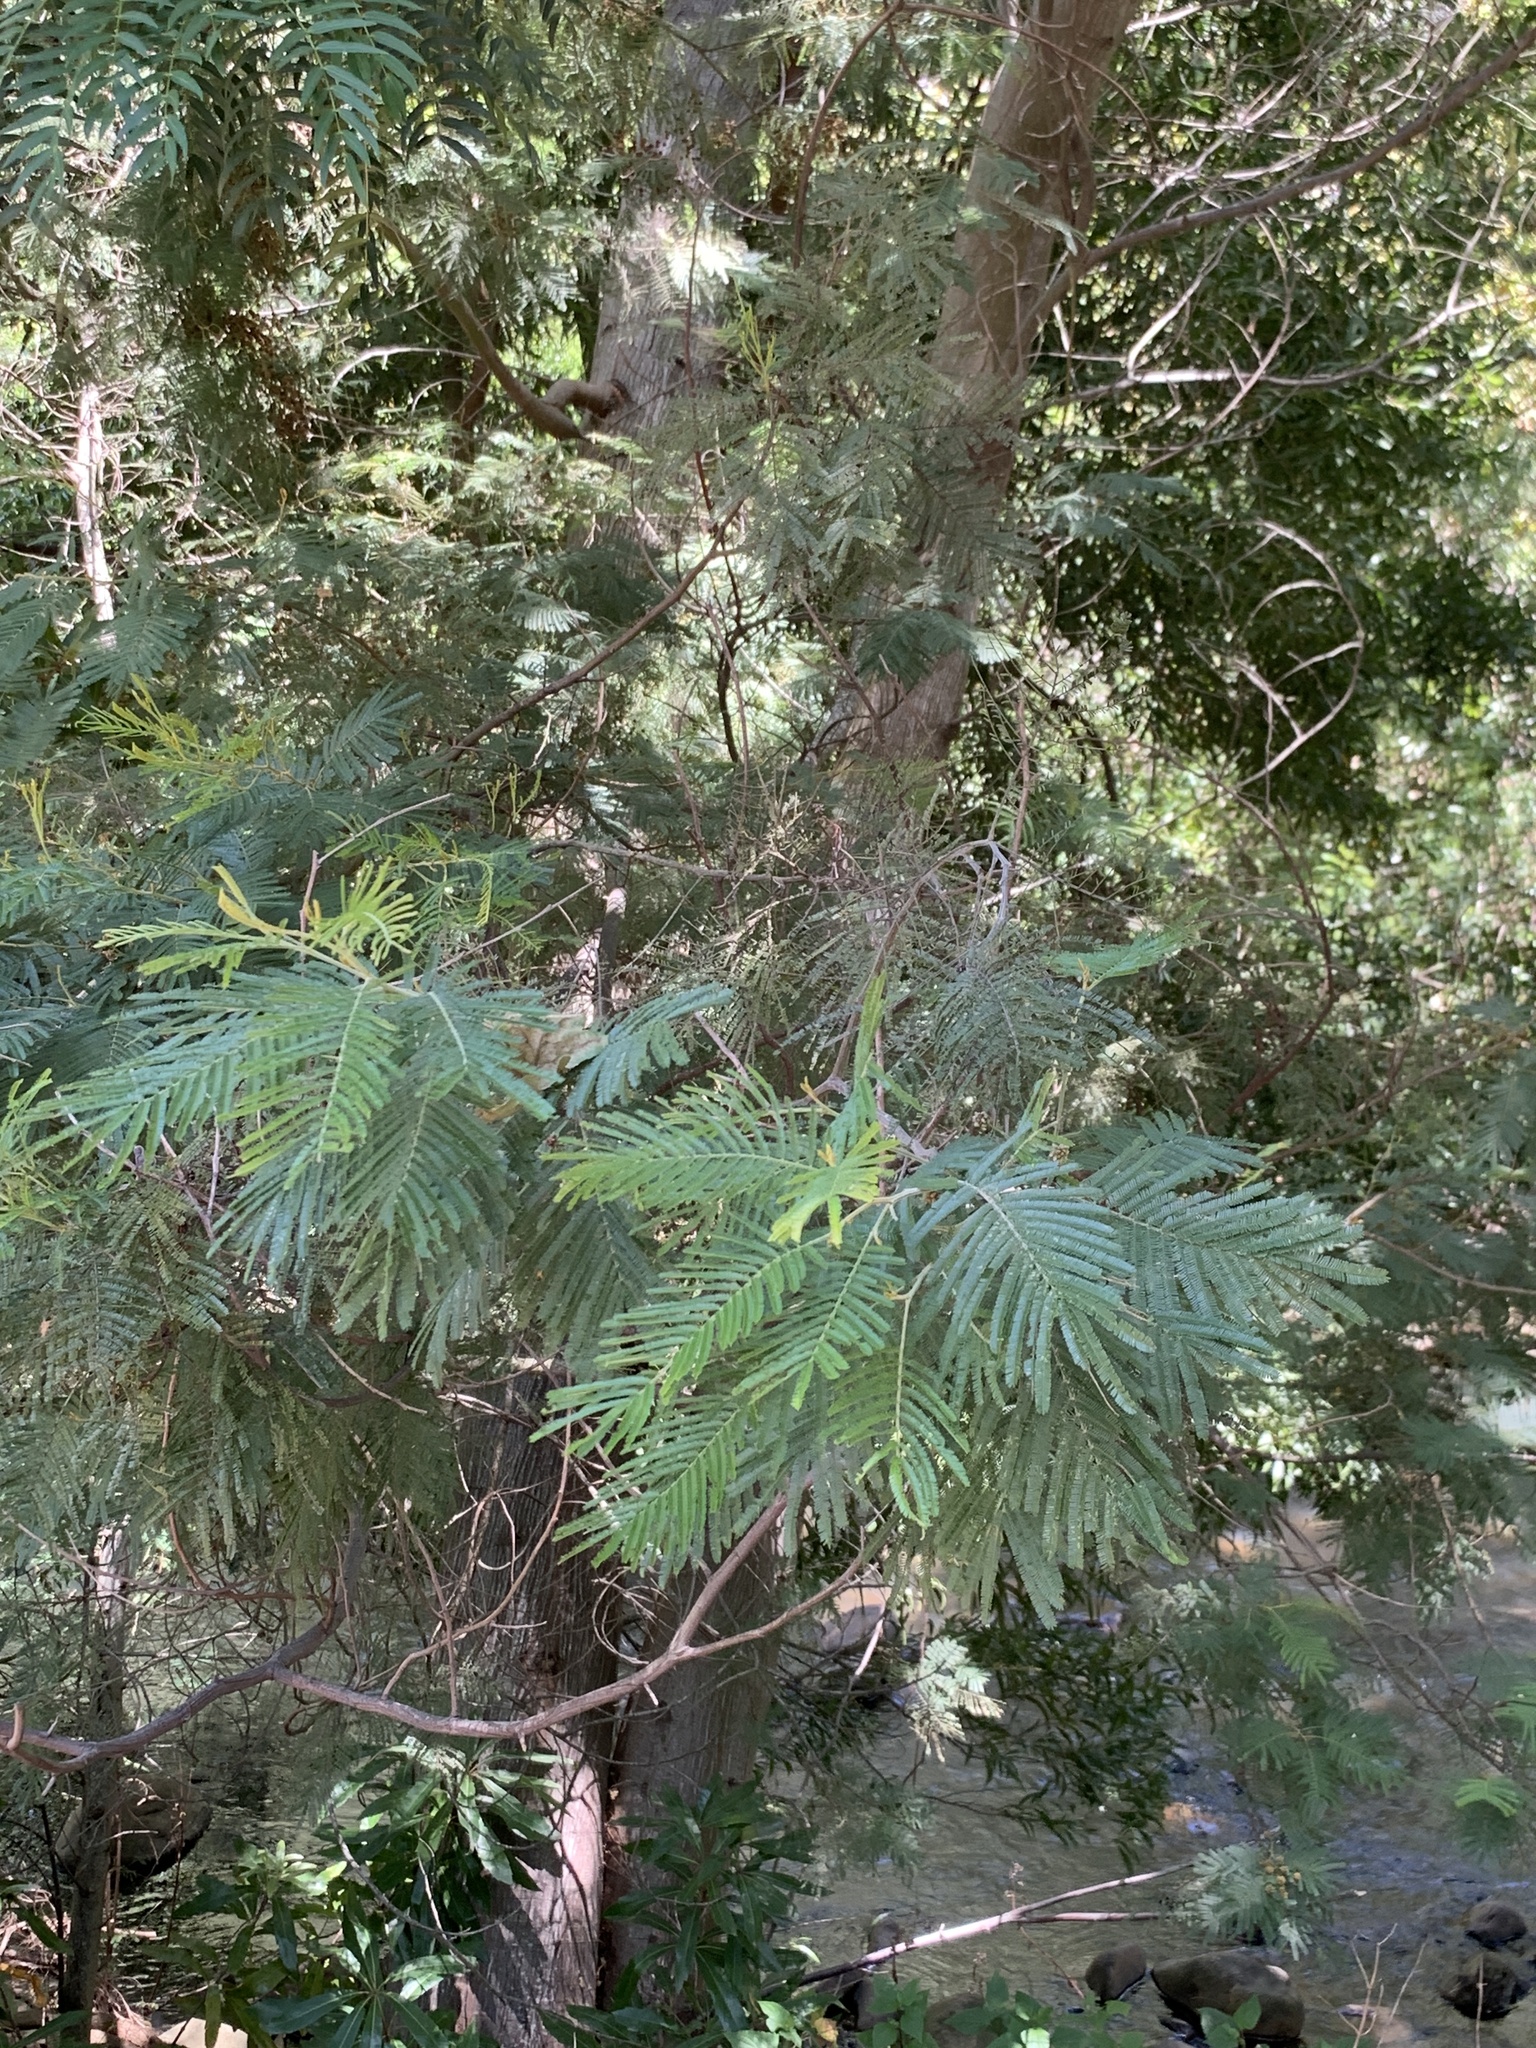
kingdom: Plantae
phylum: Tracheophyta
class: Magnoliopsida
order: Fabales
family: Fabaceae
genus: Acacia
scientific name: Acacia mearnsii
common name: Black wattle
